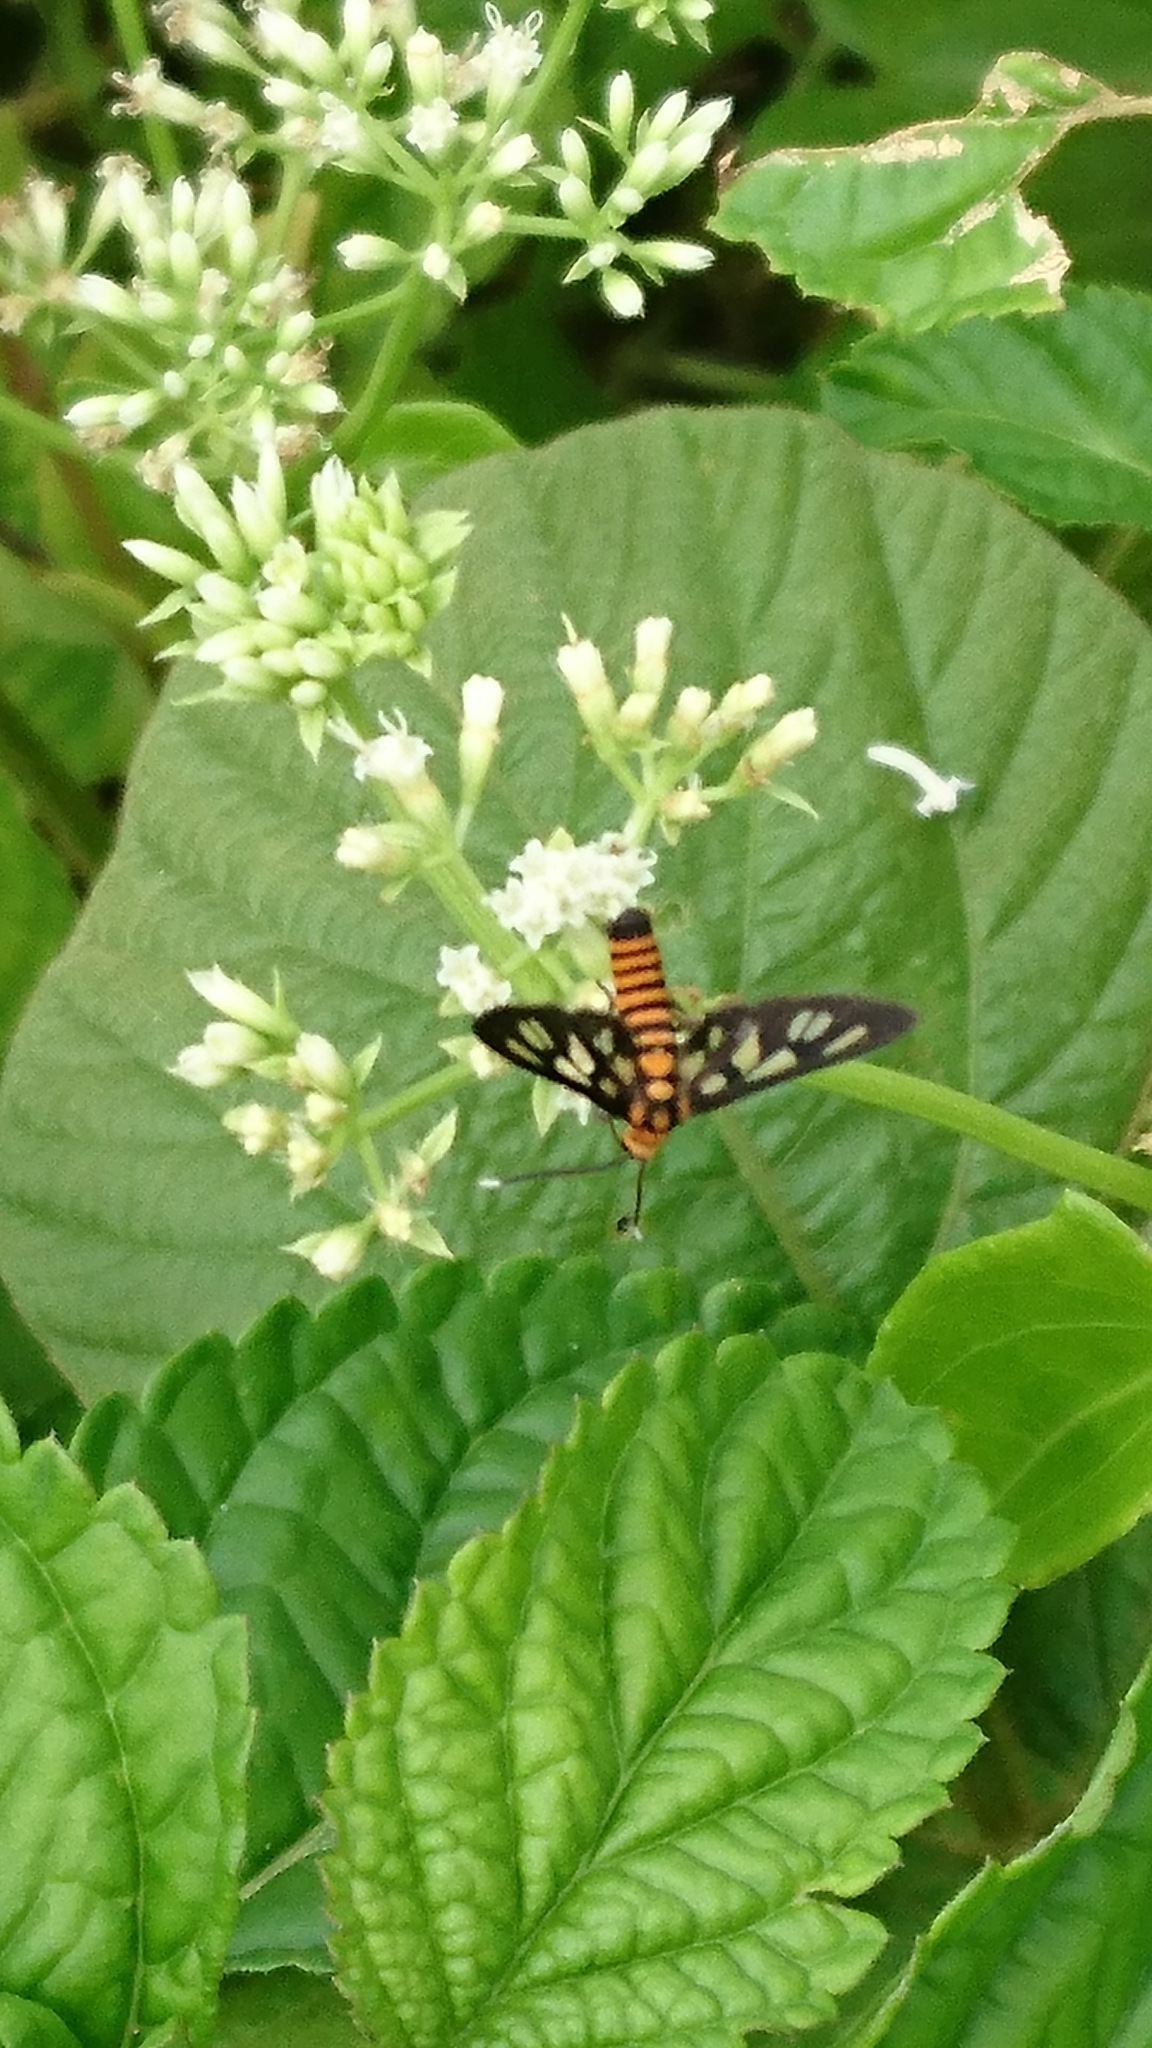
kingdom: Animalia
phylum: Arthropoda
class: Insecta
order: Lepidoptera
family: Erebidae
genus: Amata
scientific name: Amata huebneri
